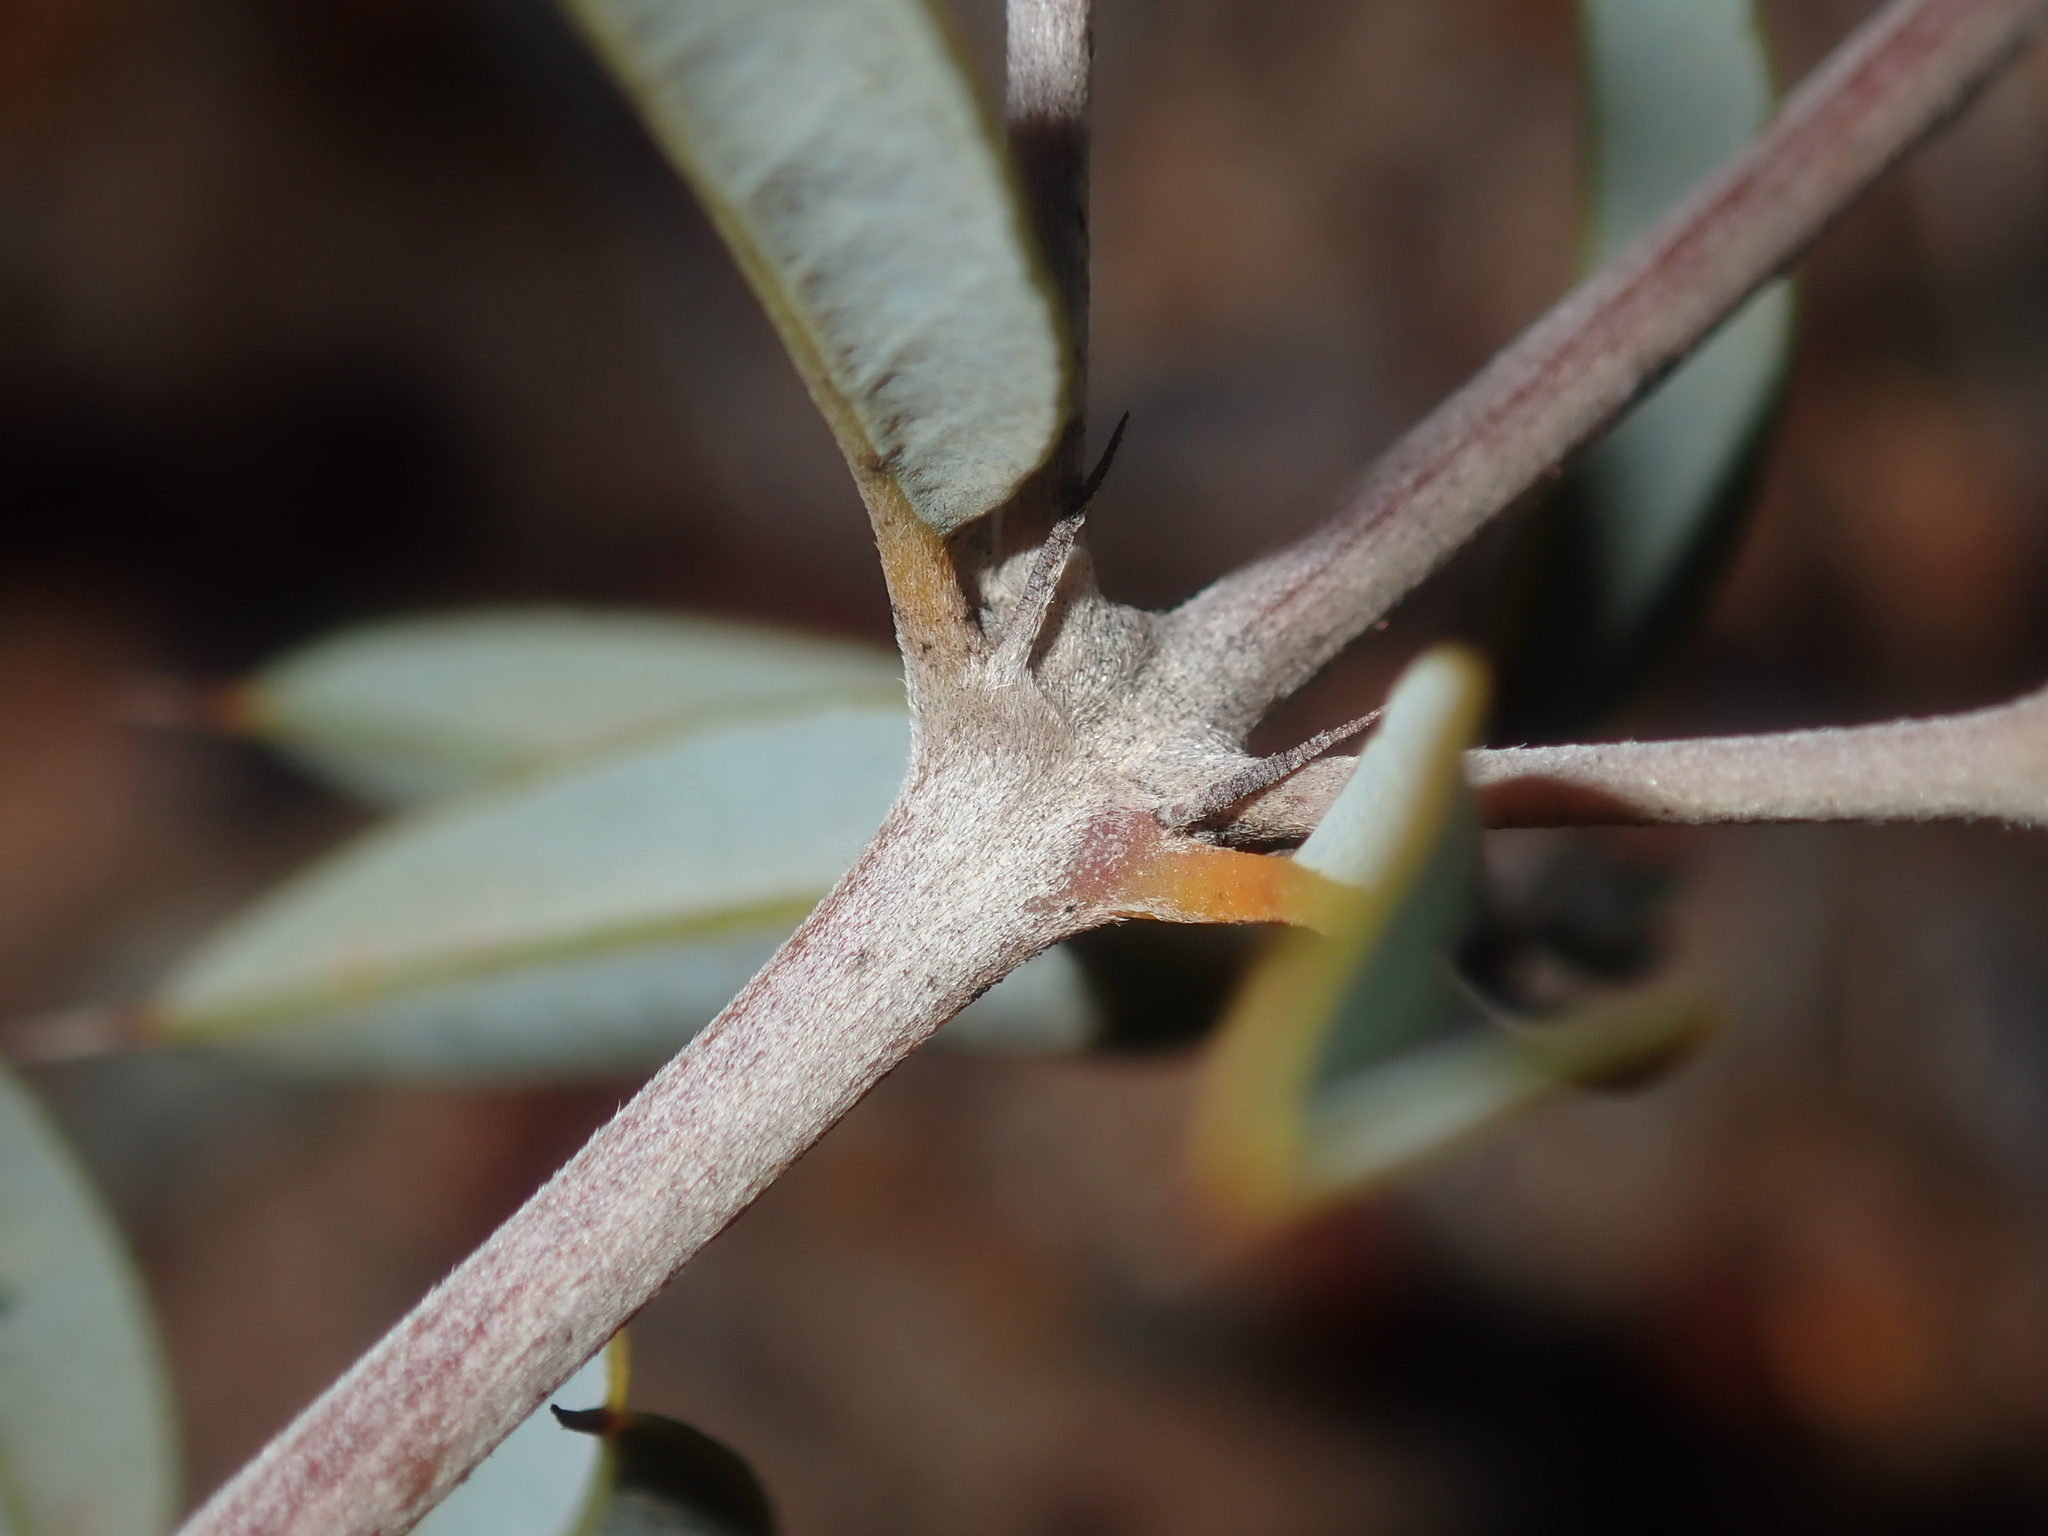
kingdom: Plantae
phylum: Tracheophyta
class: Magnoliopsida
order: Fabales
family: Fabaceae
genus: Gastrolobium
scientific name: Gastrolobium oxylobioides
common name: Champion bay poison
